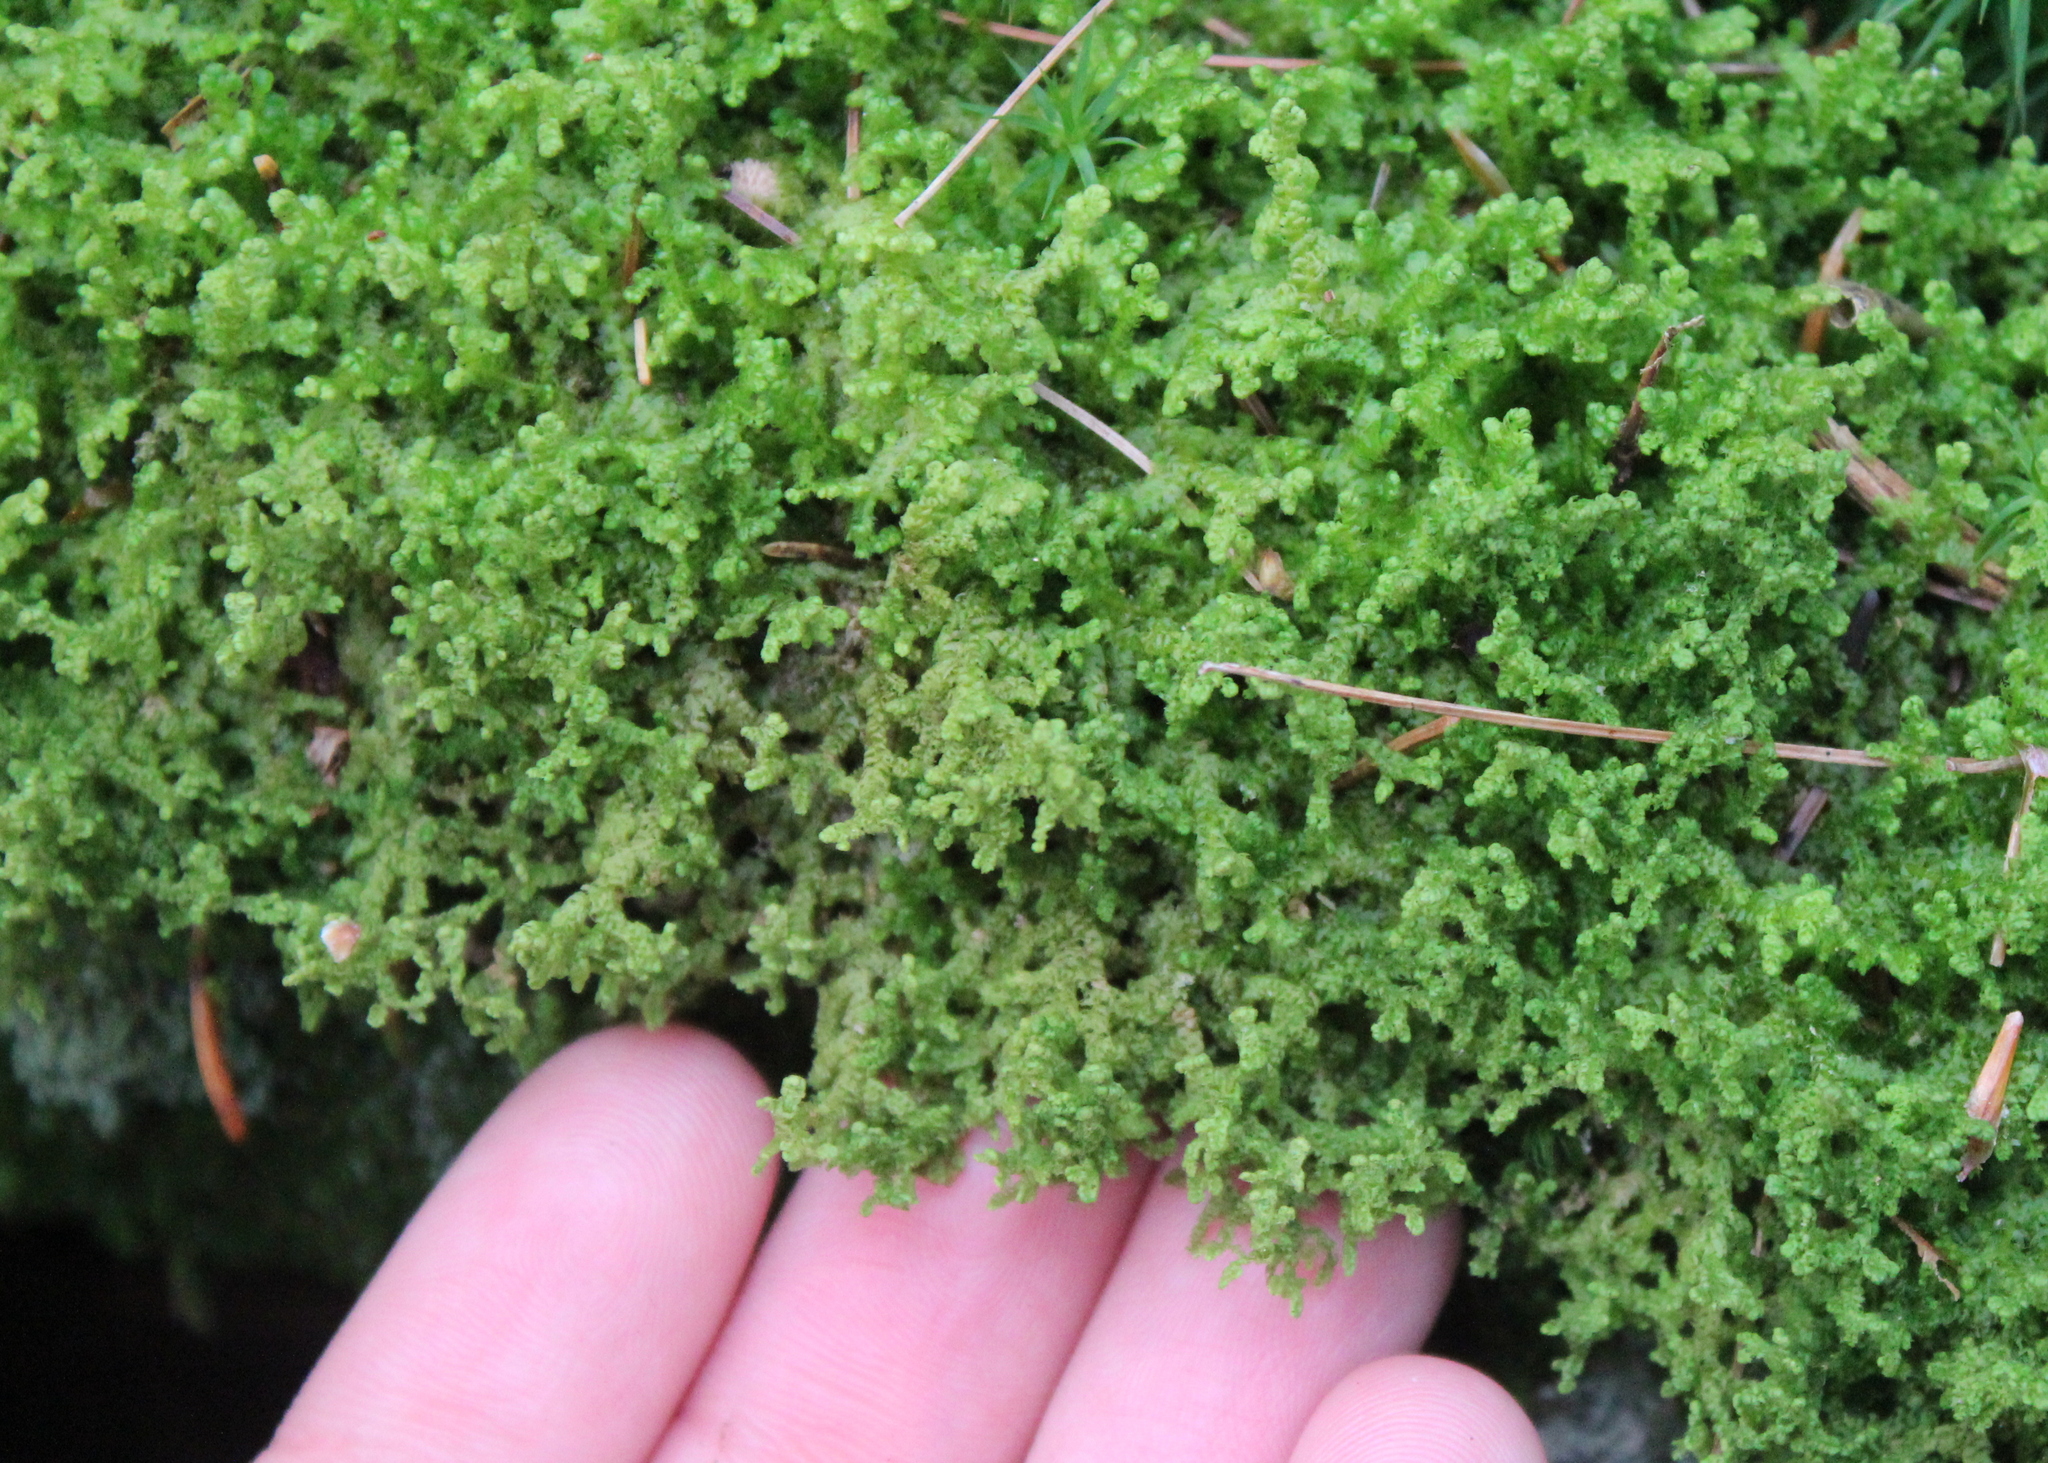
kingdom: Plantae
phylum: Marchantiophyta
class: Jungermanniopsida
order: Ptilidiales
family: Ptilidiaceae
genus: Ptilidium
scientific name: Ptilidium ciliare
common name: Ciliate fringewort
